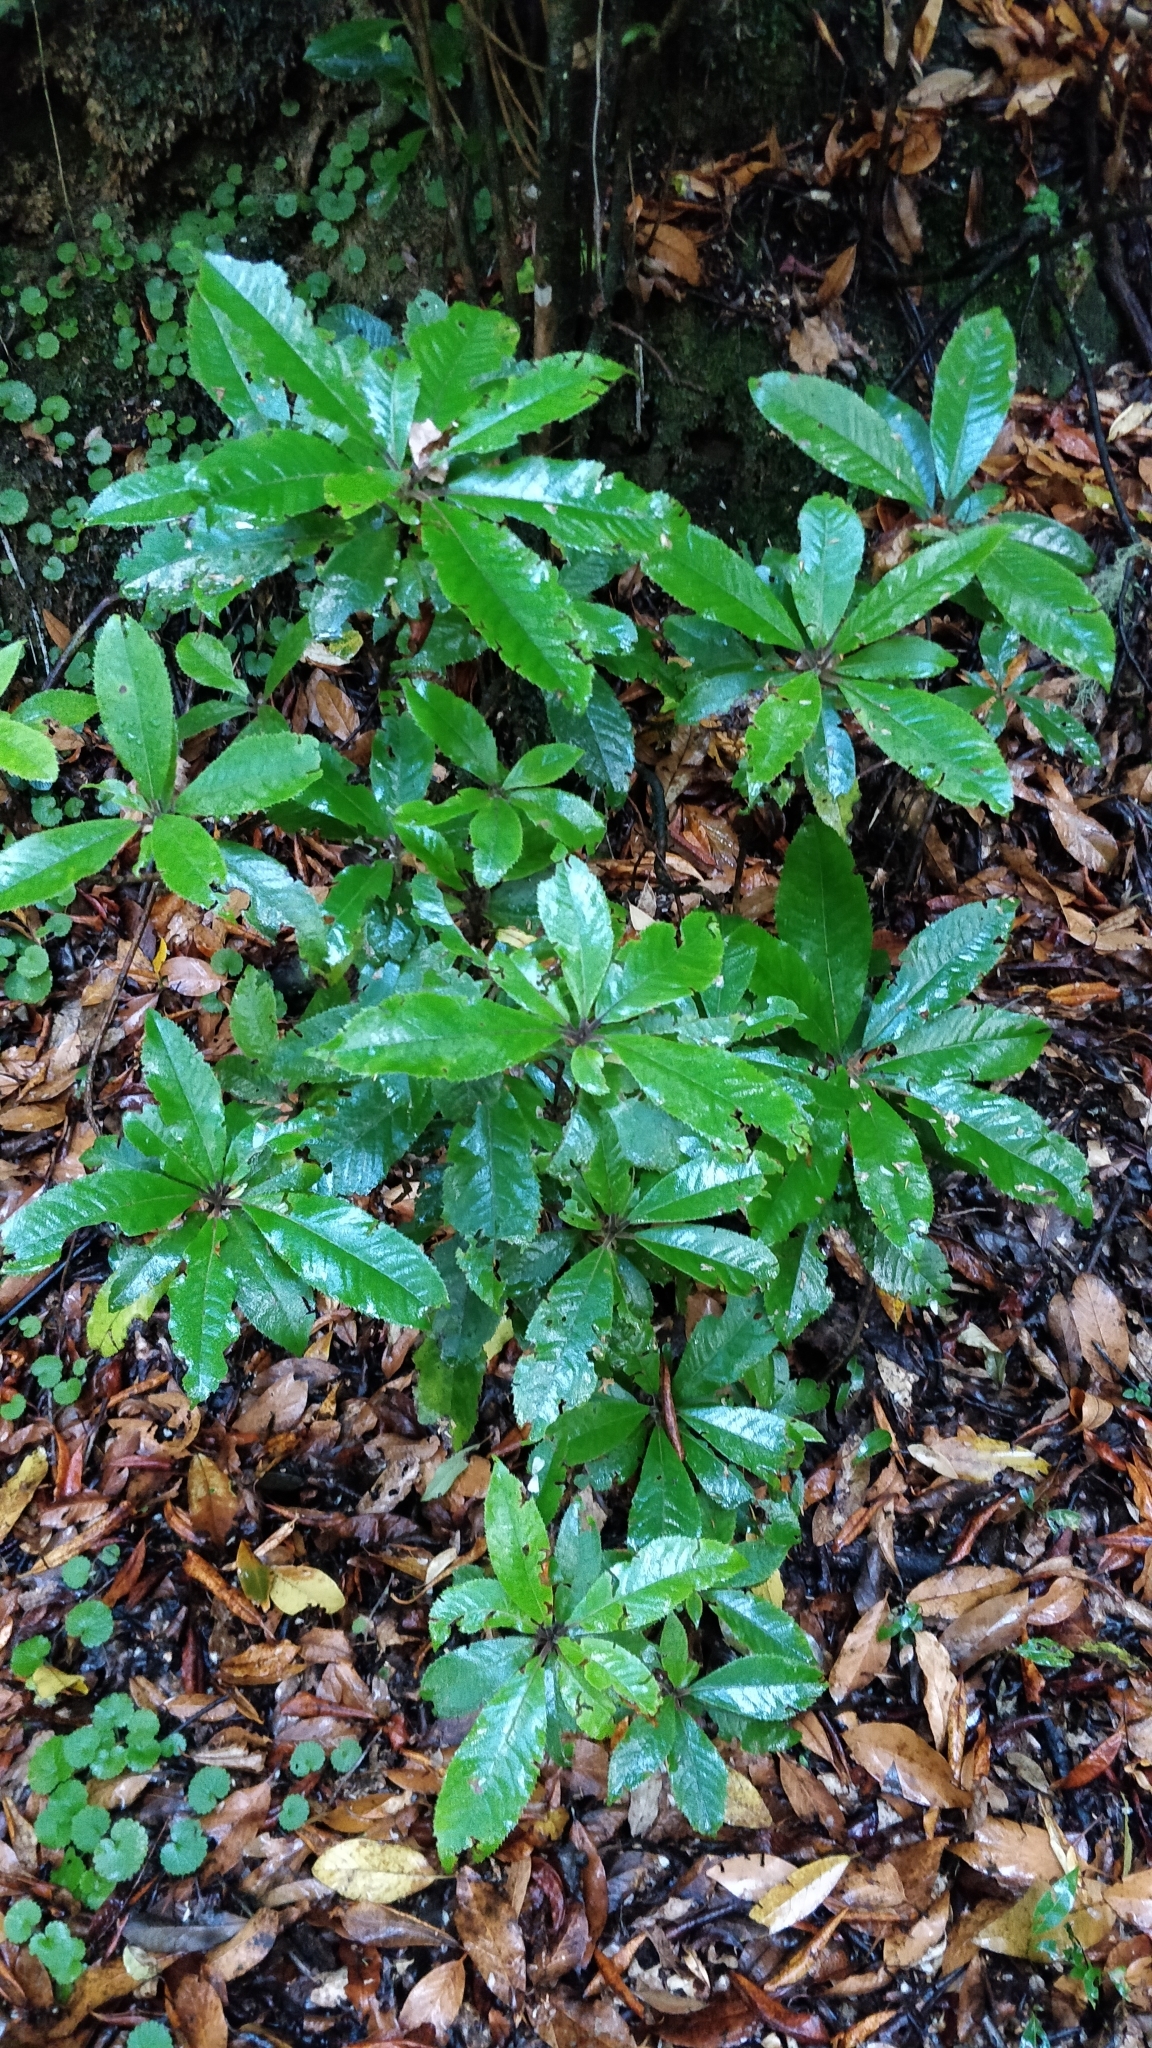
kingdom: Plantae
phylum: Tracheophyta
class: Magnoliopsida
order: Ericales
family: Clethraceae
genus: Clethra
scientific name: Clethra arborea
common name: Lily-of-the-valley-tree
